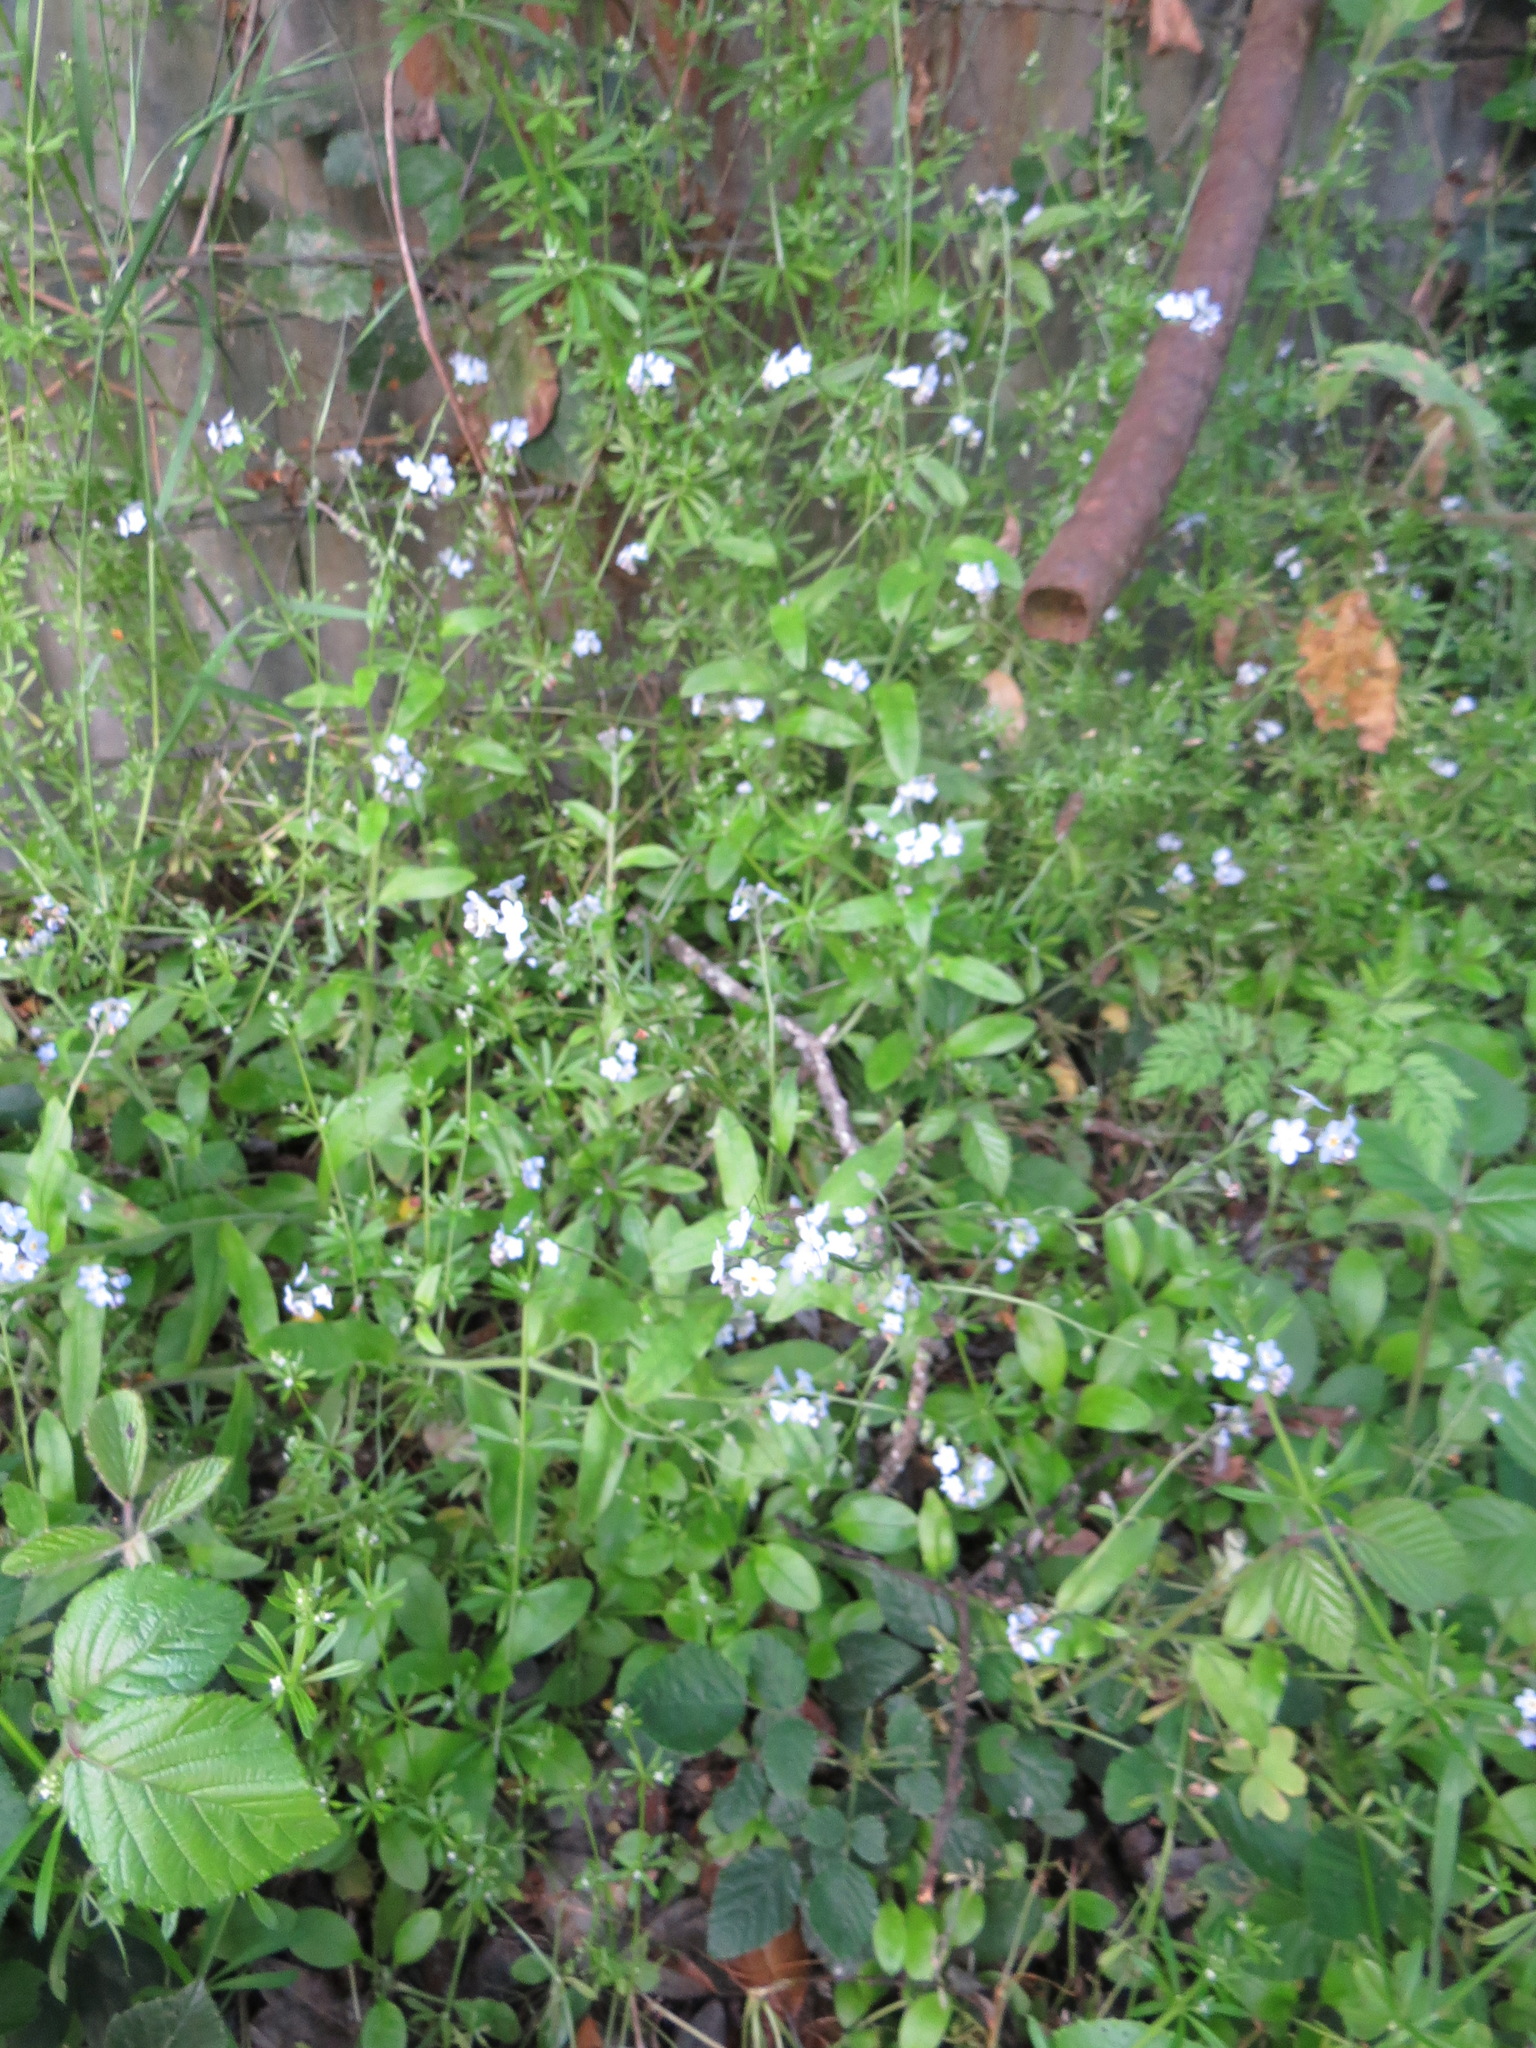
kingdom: Plantae
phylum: Tracheophyta
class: Magnoliopsida
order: Boraginales
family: Boraginaceae
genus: Myosotis
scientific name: Myosotis latifolia
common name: Broadleaf forget-me-not
